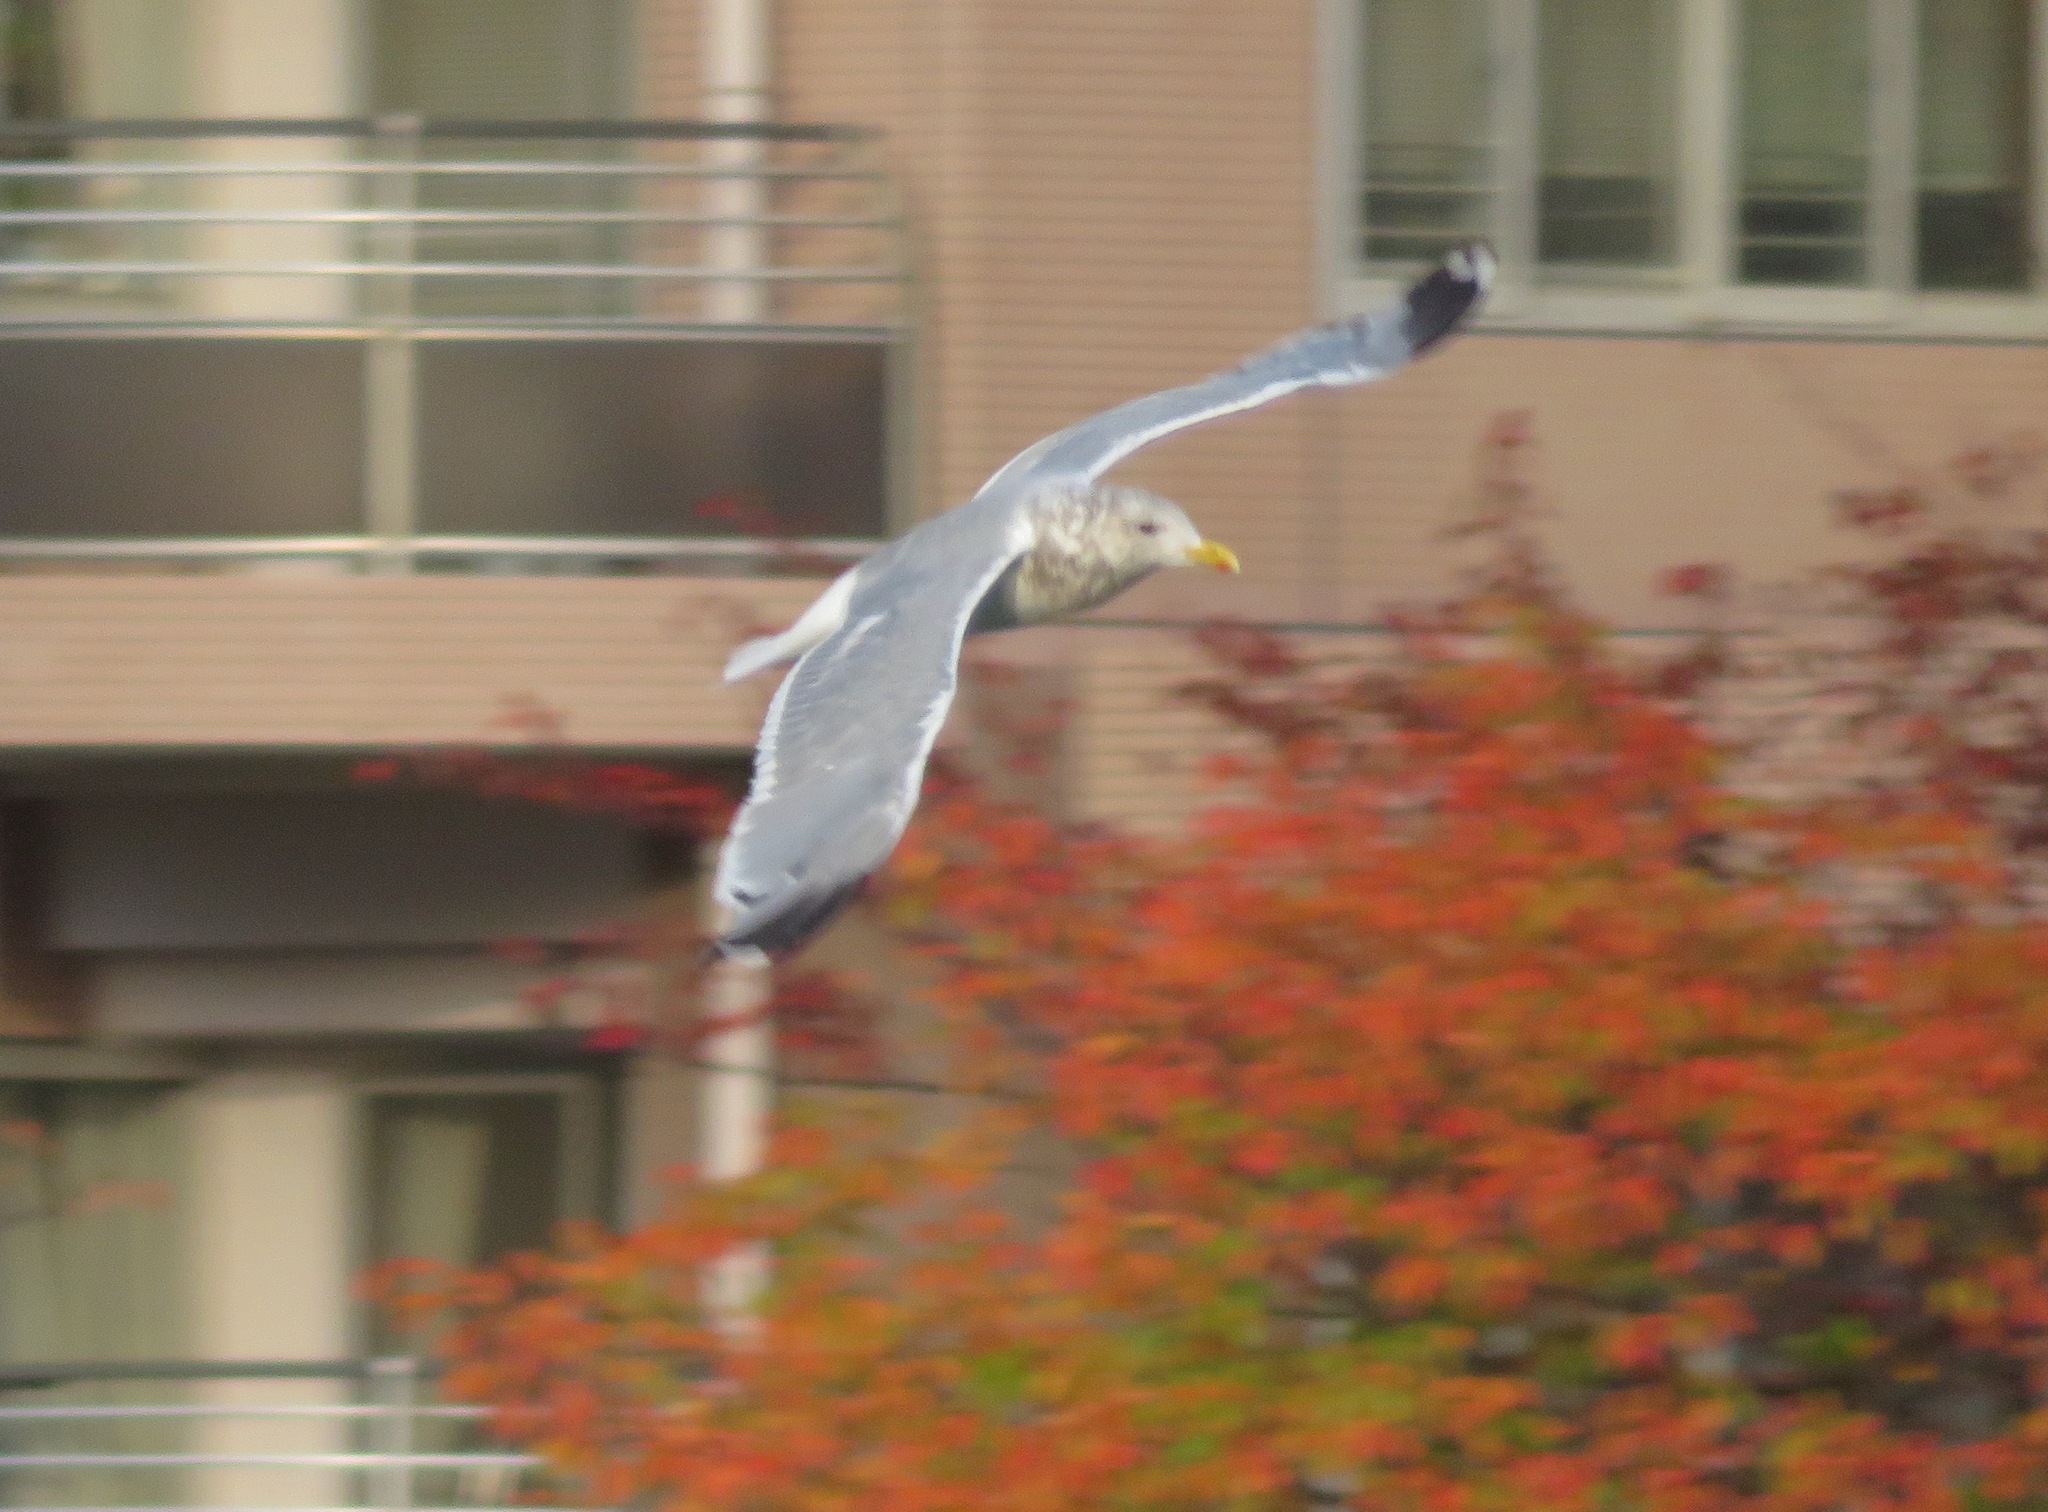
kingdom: Animalia
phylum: Chordata
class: Aves
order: Charadriiformes
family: Laridae
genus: Larus
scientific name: Larus vegae
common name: Vega gull
